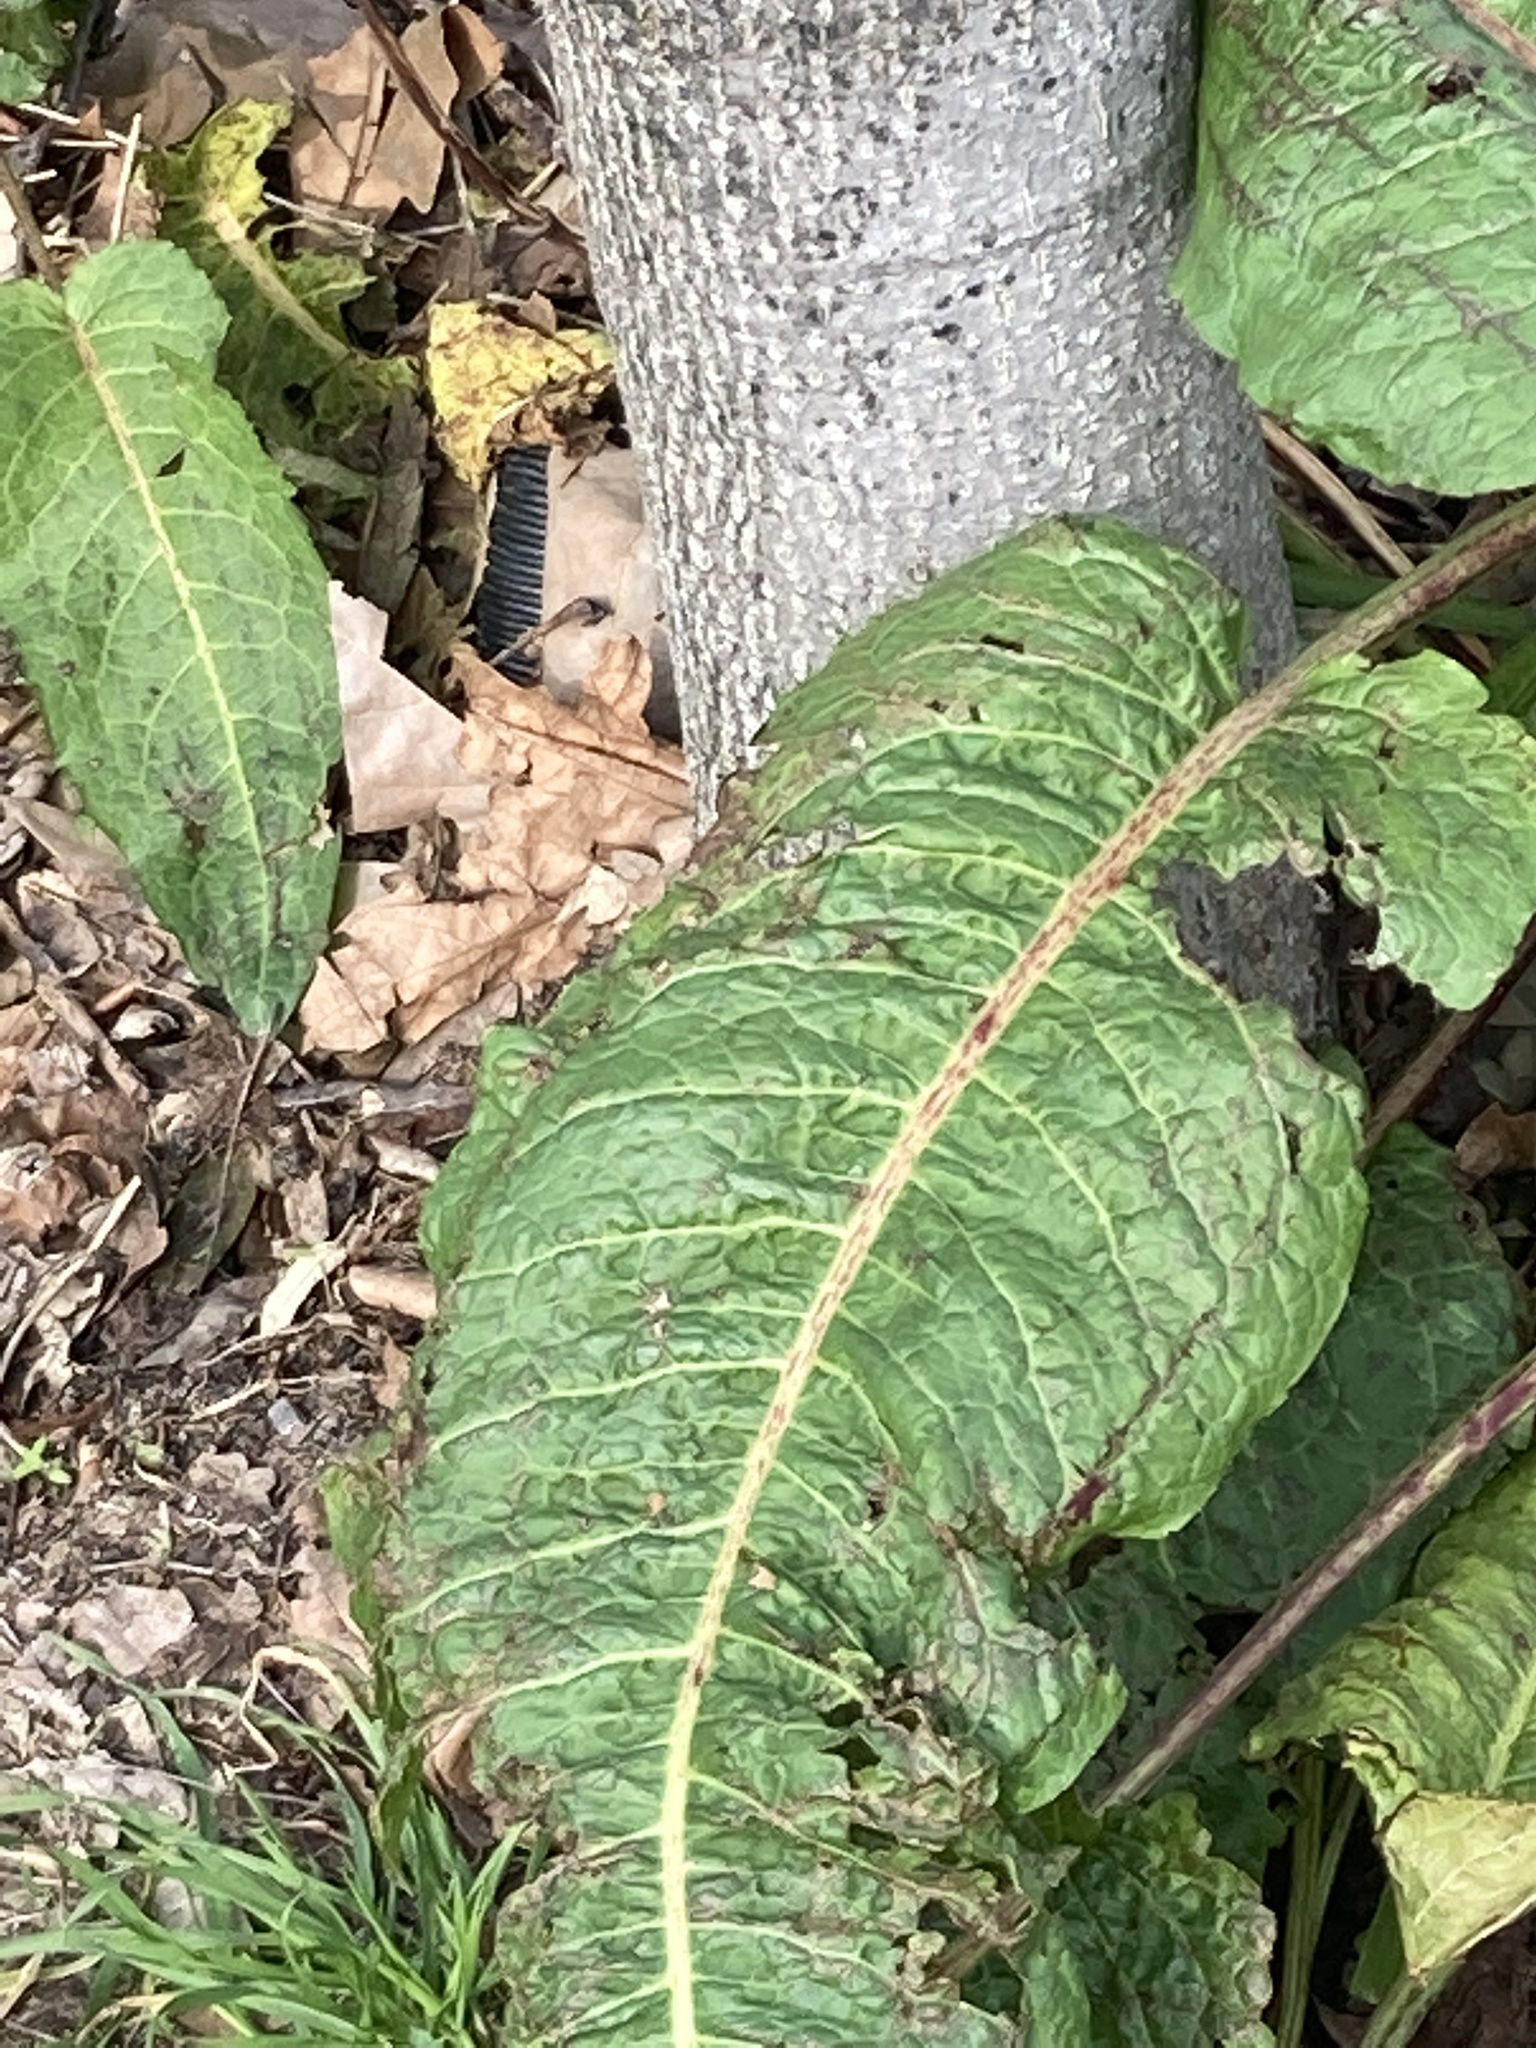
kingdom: Plantae
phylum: Tracheophyta
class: Magnoliopsida
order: Caryophyllales
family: Polygonaceae
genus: Rumex
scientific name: Rumex obtusifolius
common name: Bitter dock
